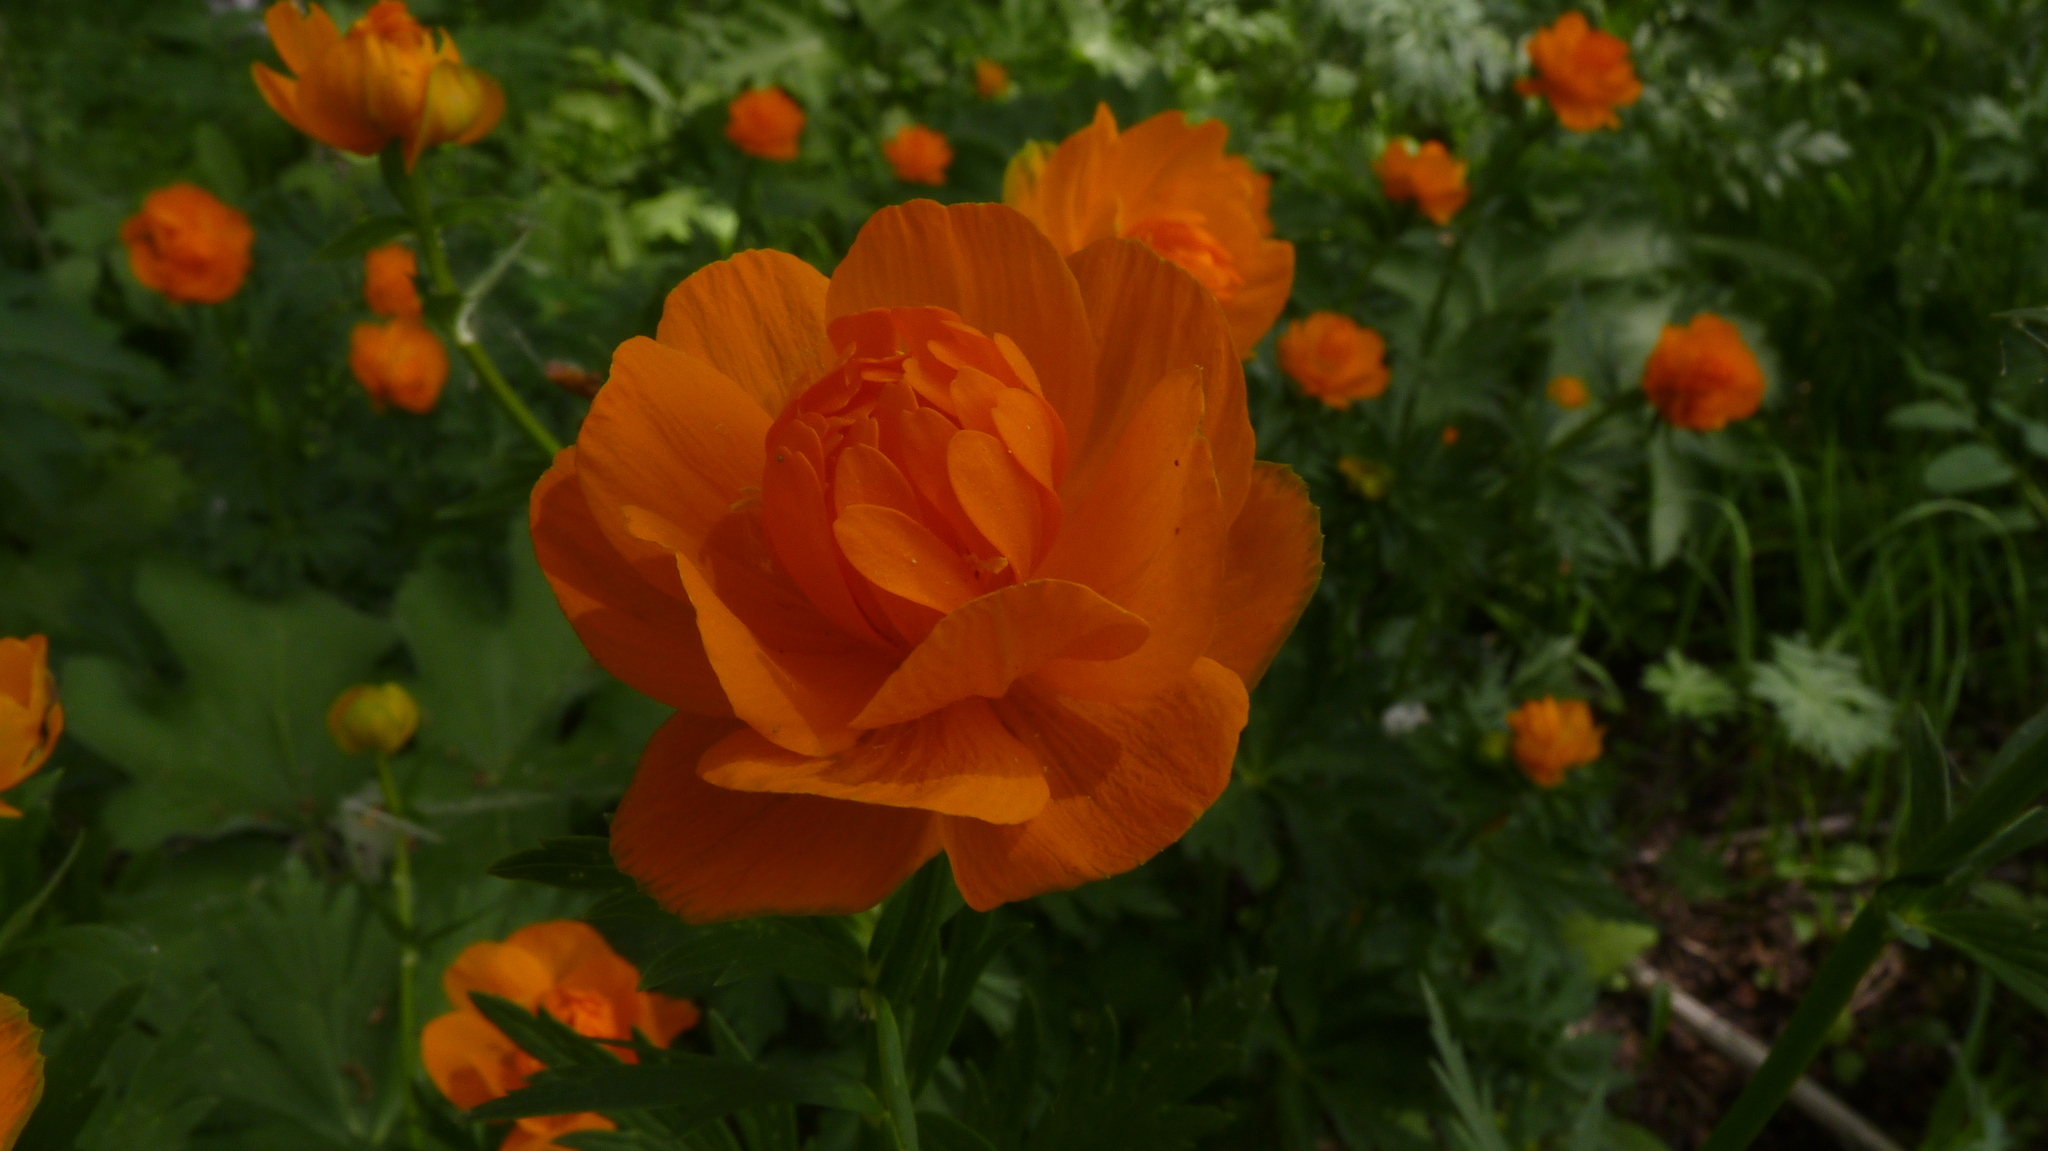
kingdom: Plantae
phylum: Tracheophyta
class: Magnoliopsida
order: Ranunculales
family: Ranunculaceae
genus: Trollius
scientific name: Trollius asiaticus
